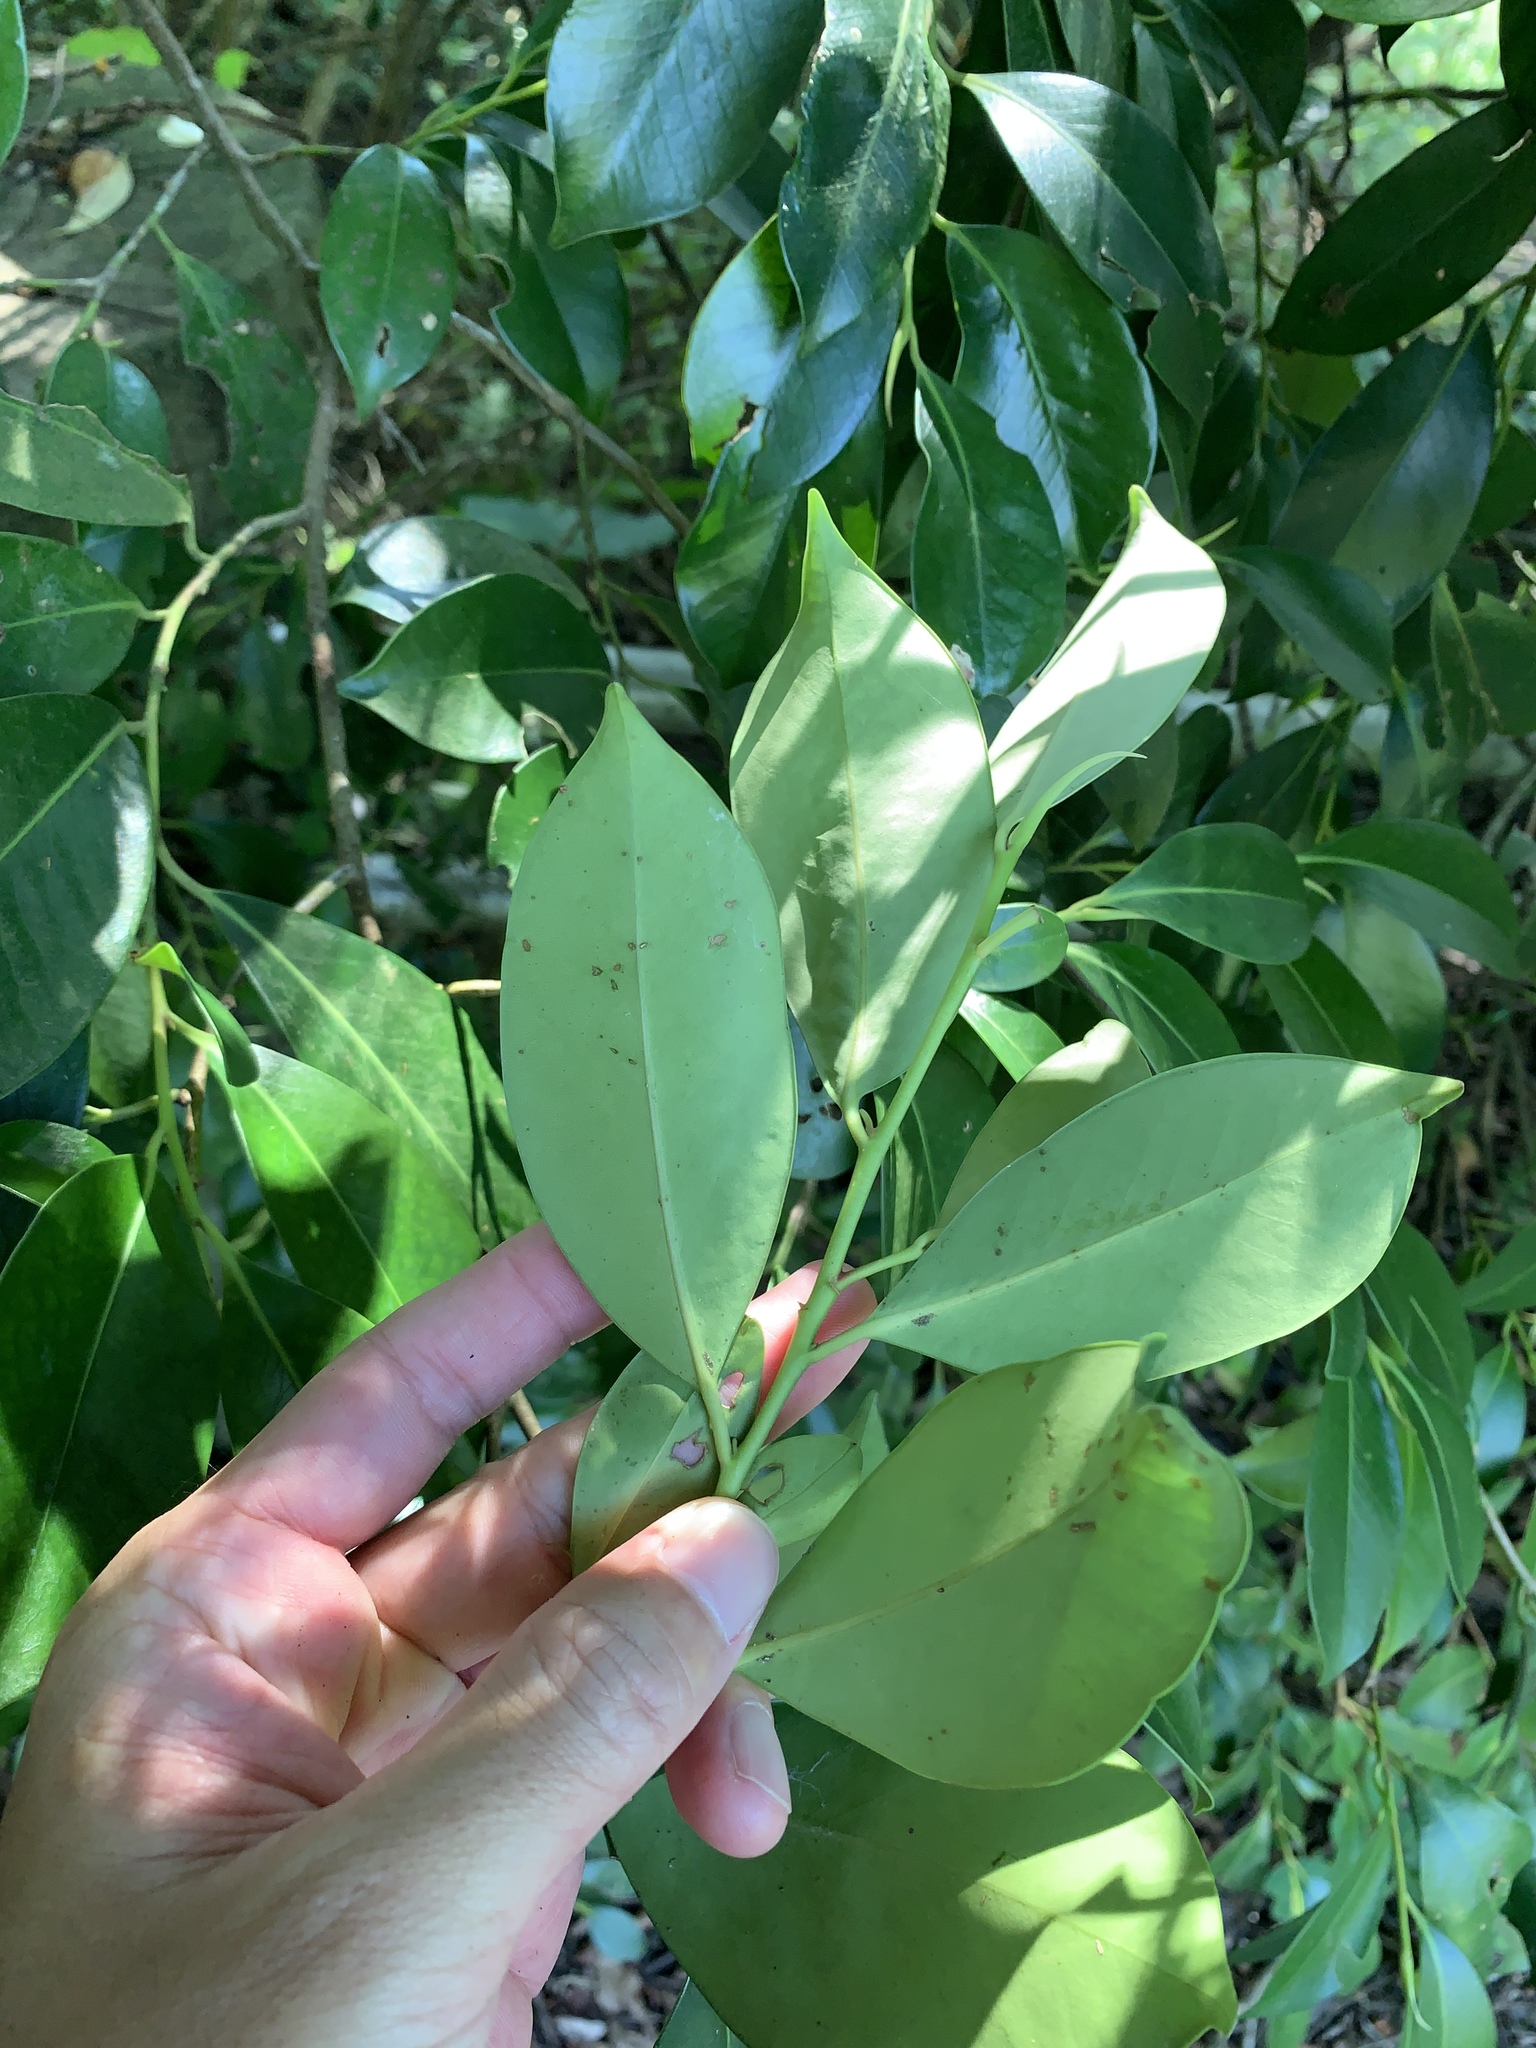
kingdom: Plantae
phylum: Tracheophyta
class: Magnoliopsida
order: Ericales
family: Pentaphylacaceae
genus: Cleyera
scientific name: Cleyera japonica
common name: Sakaki
